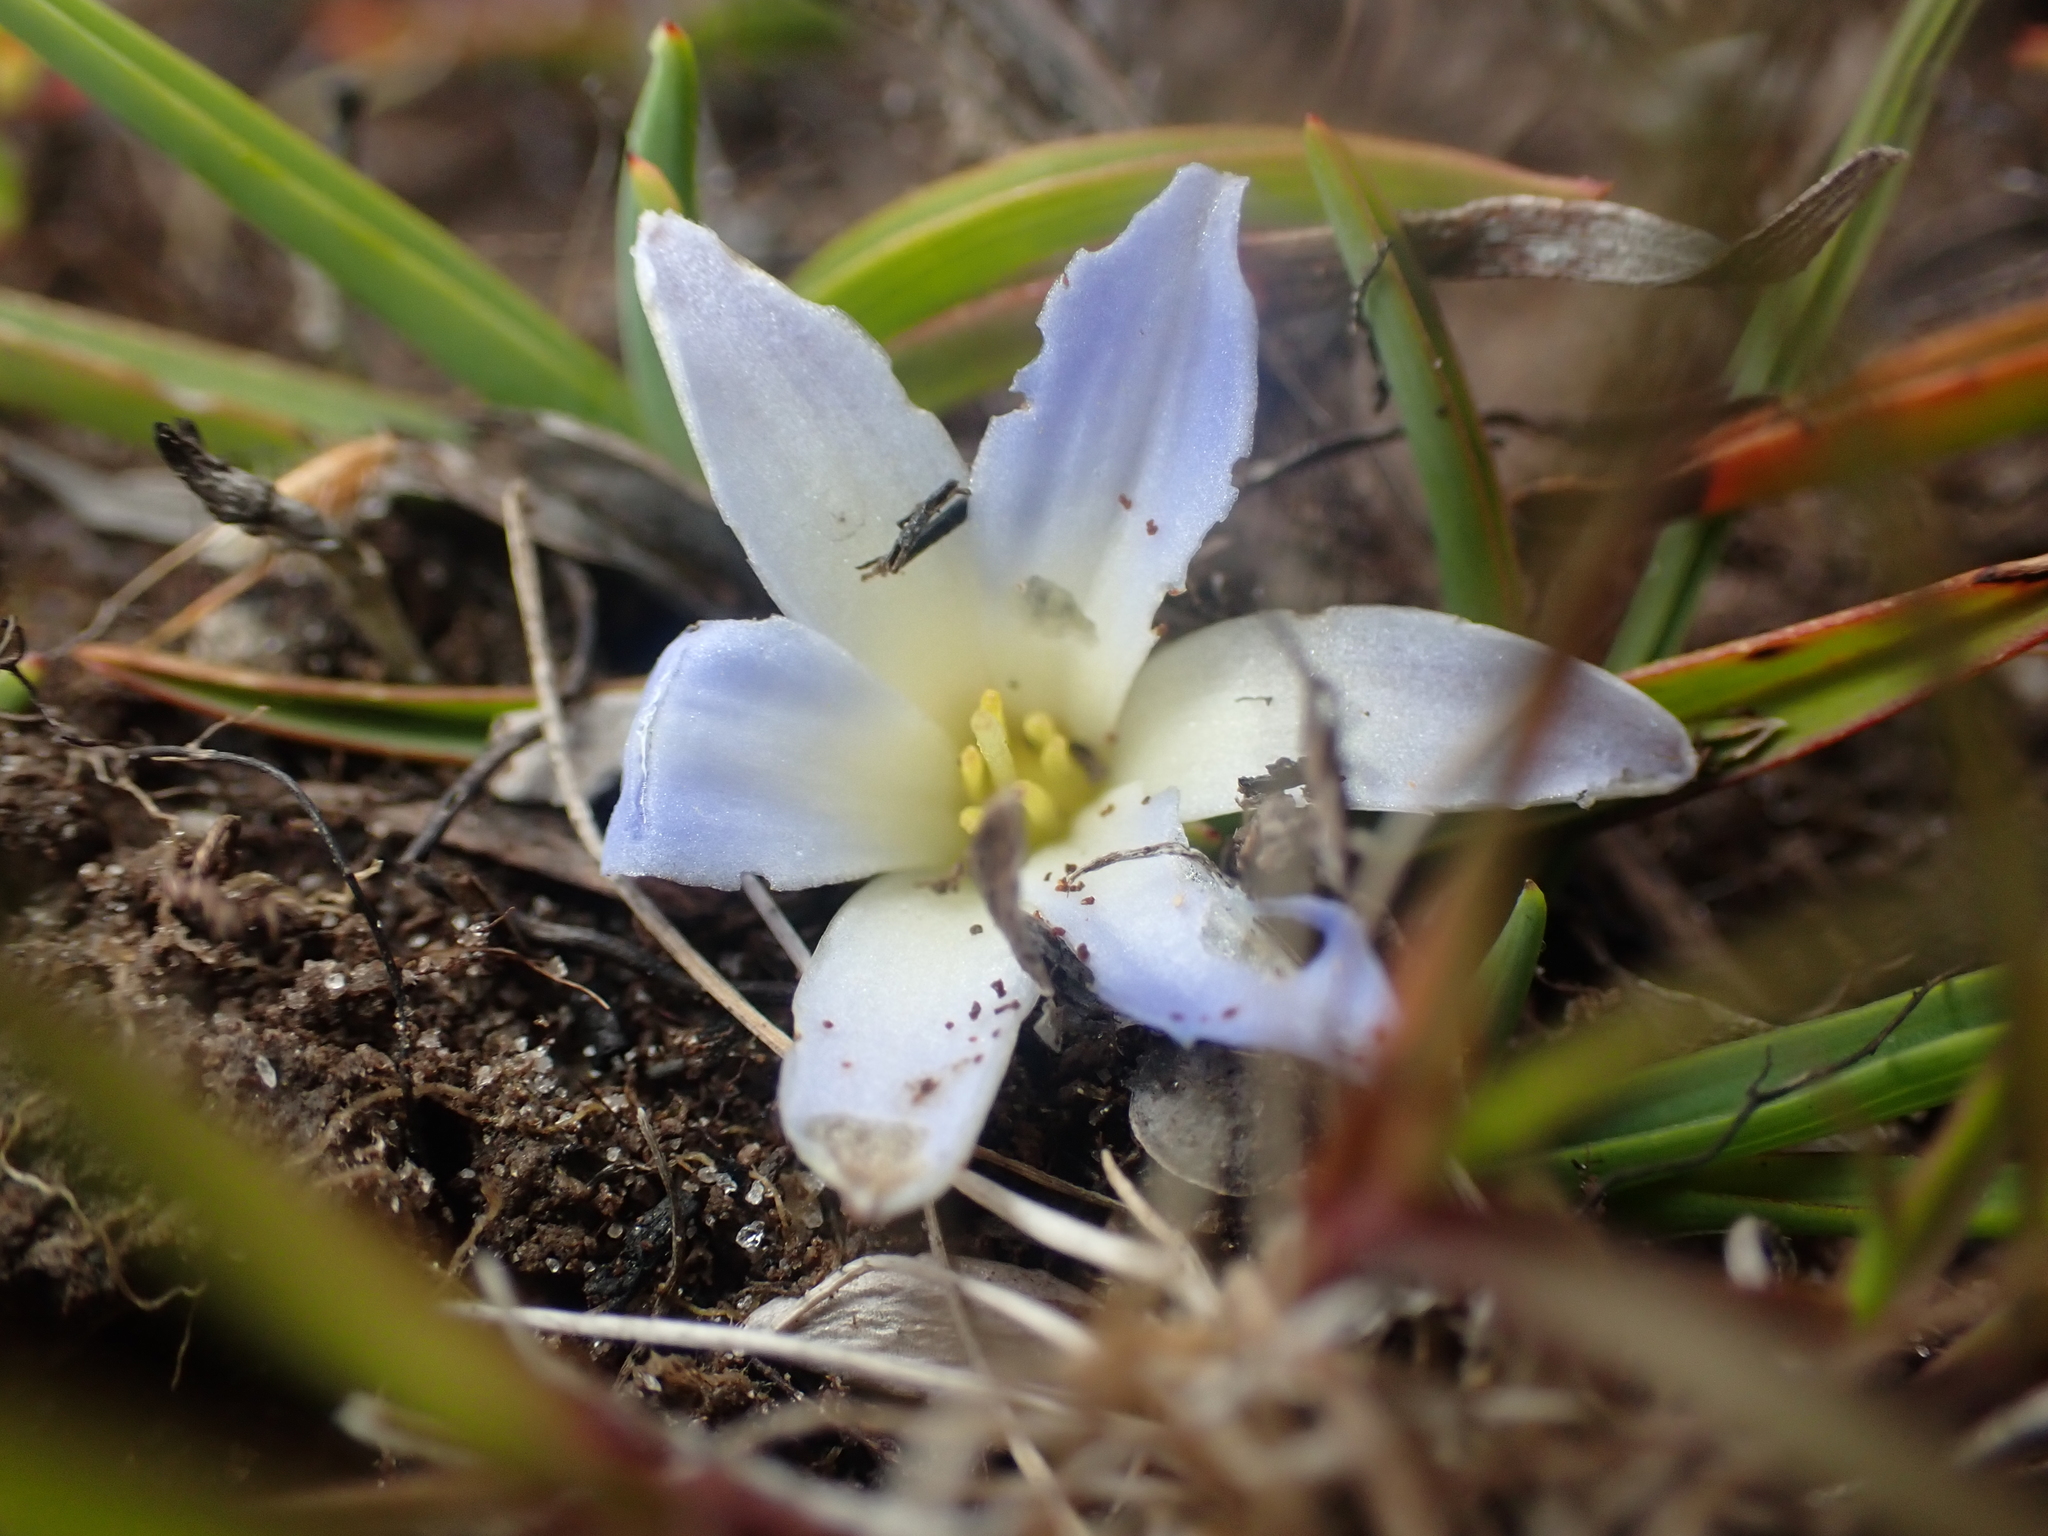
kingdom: Plantae
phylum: Tracheophyta
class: Liliopsida
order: Asparagales
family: Asphodelaceae
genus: Herpolirion
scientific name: Herpolirion novae-zelandiae
